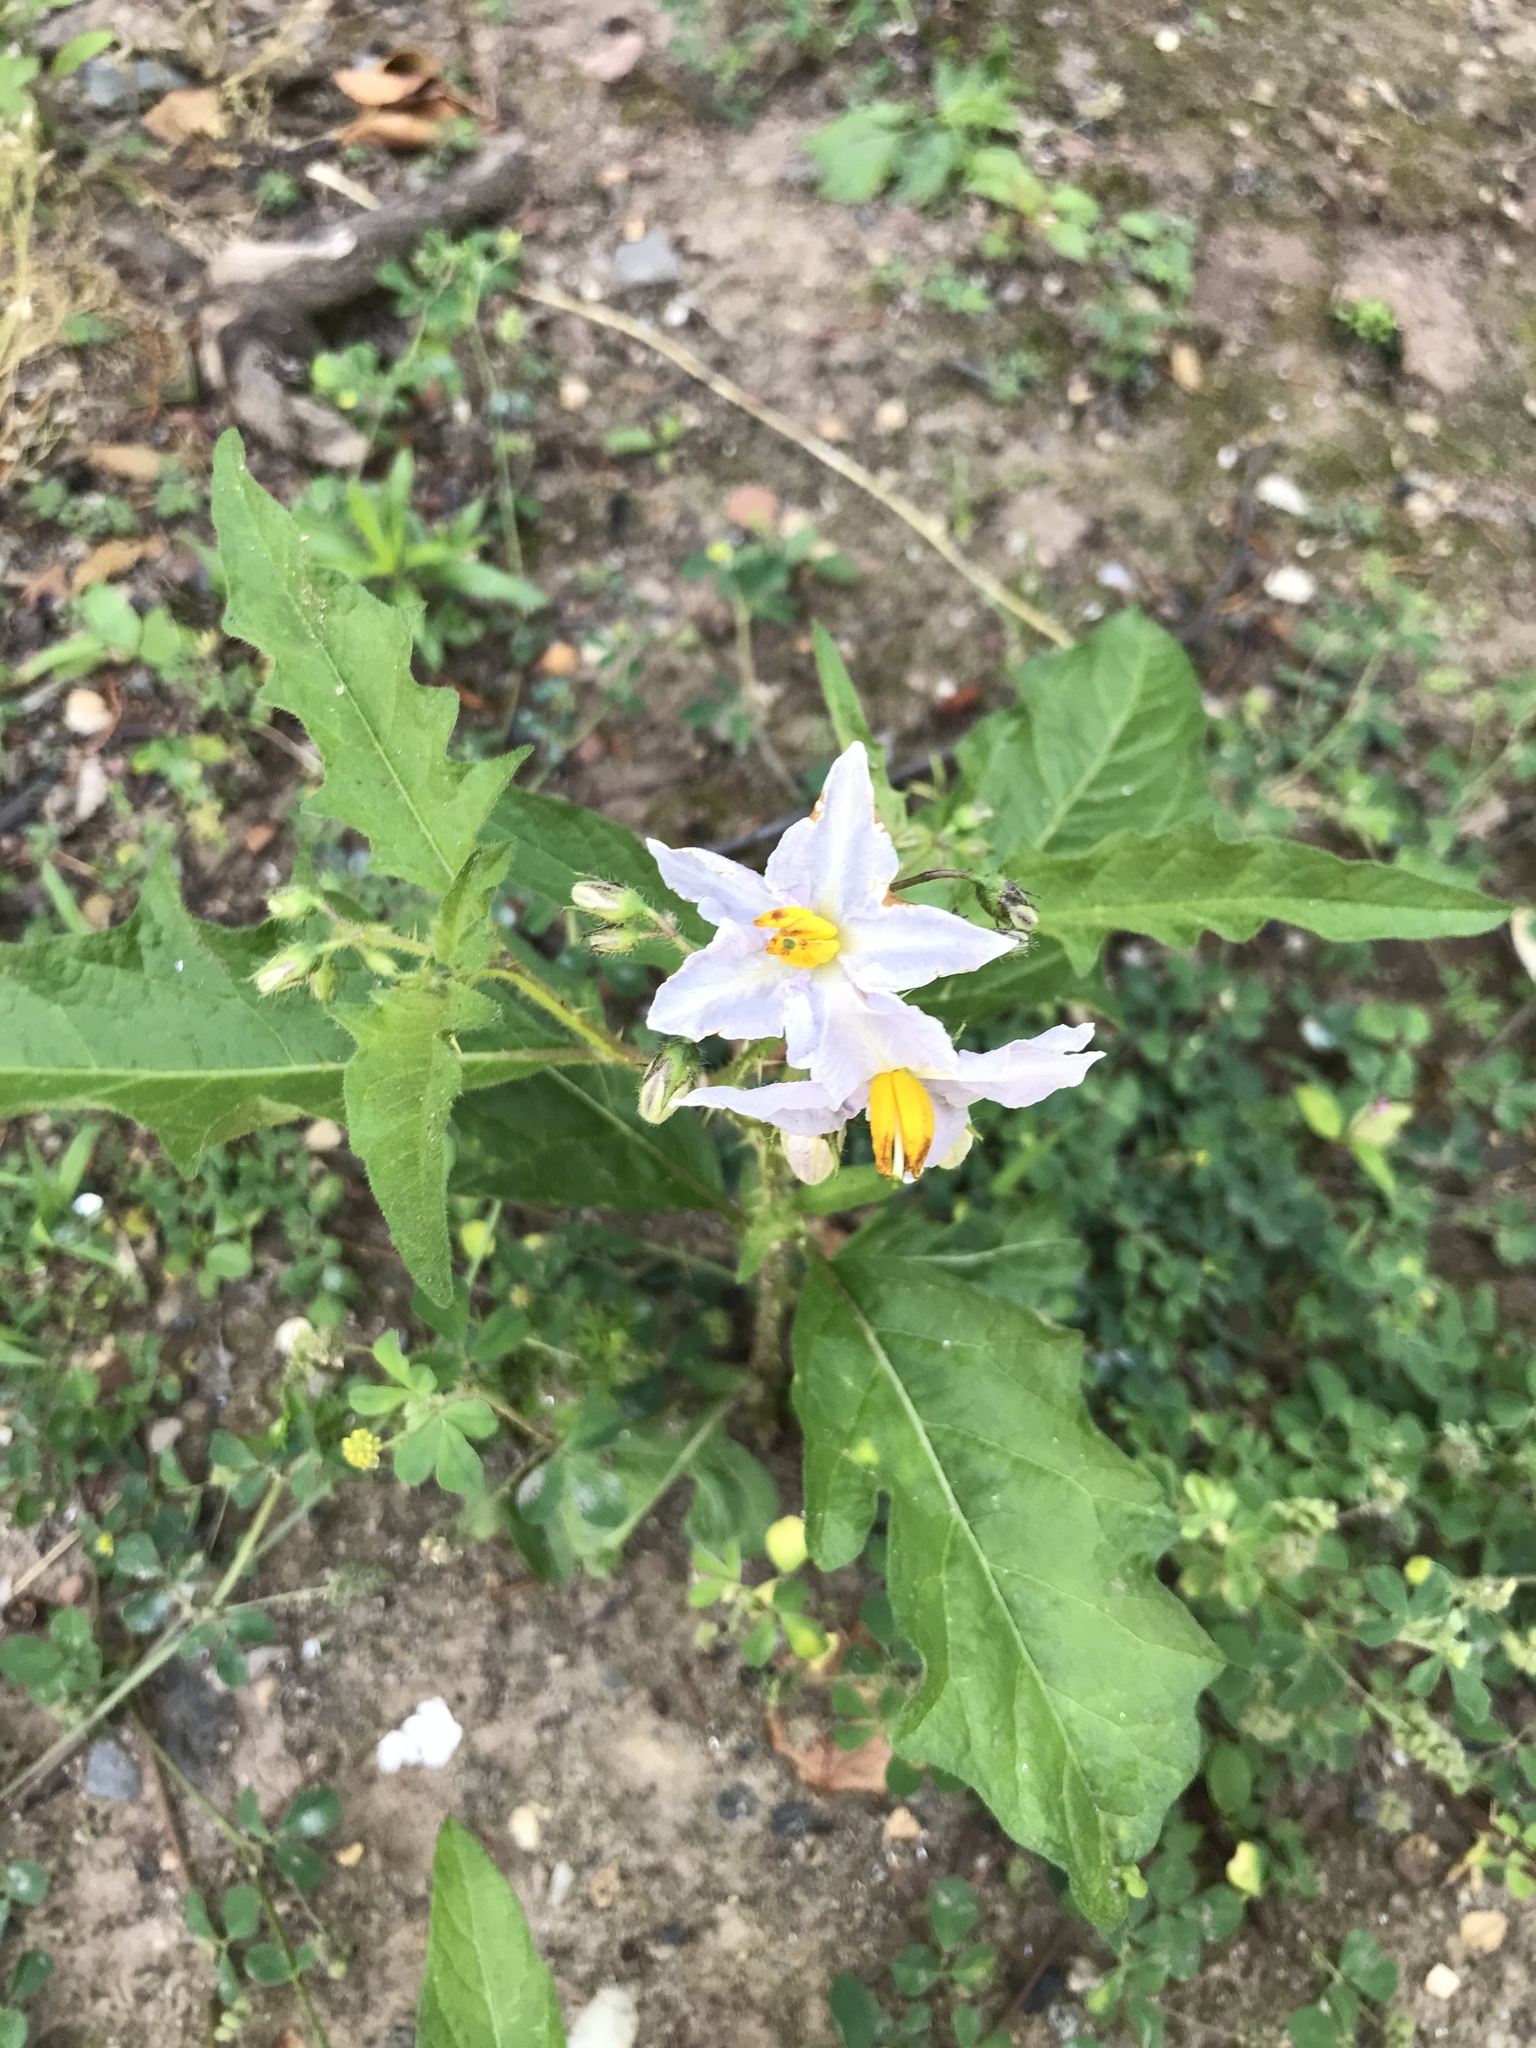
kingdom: Plantae
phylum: Tracheophyta
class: Magnoliopsida
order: Solanales
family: Solanaceae
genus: Solanum
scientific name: Solanum carolinense
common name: Horse-nettle
